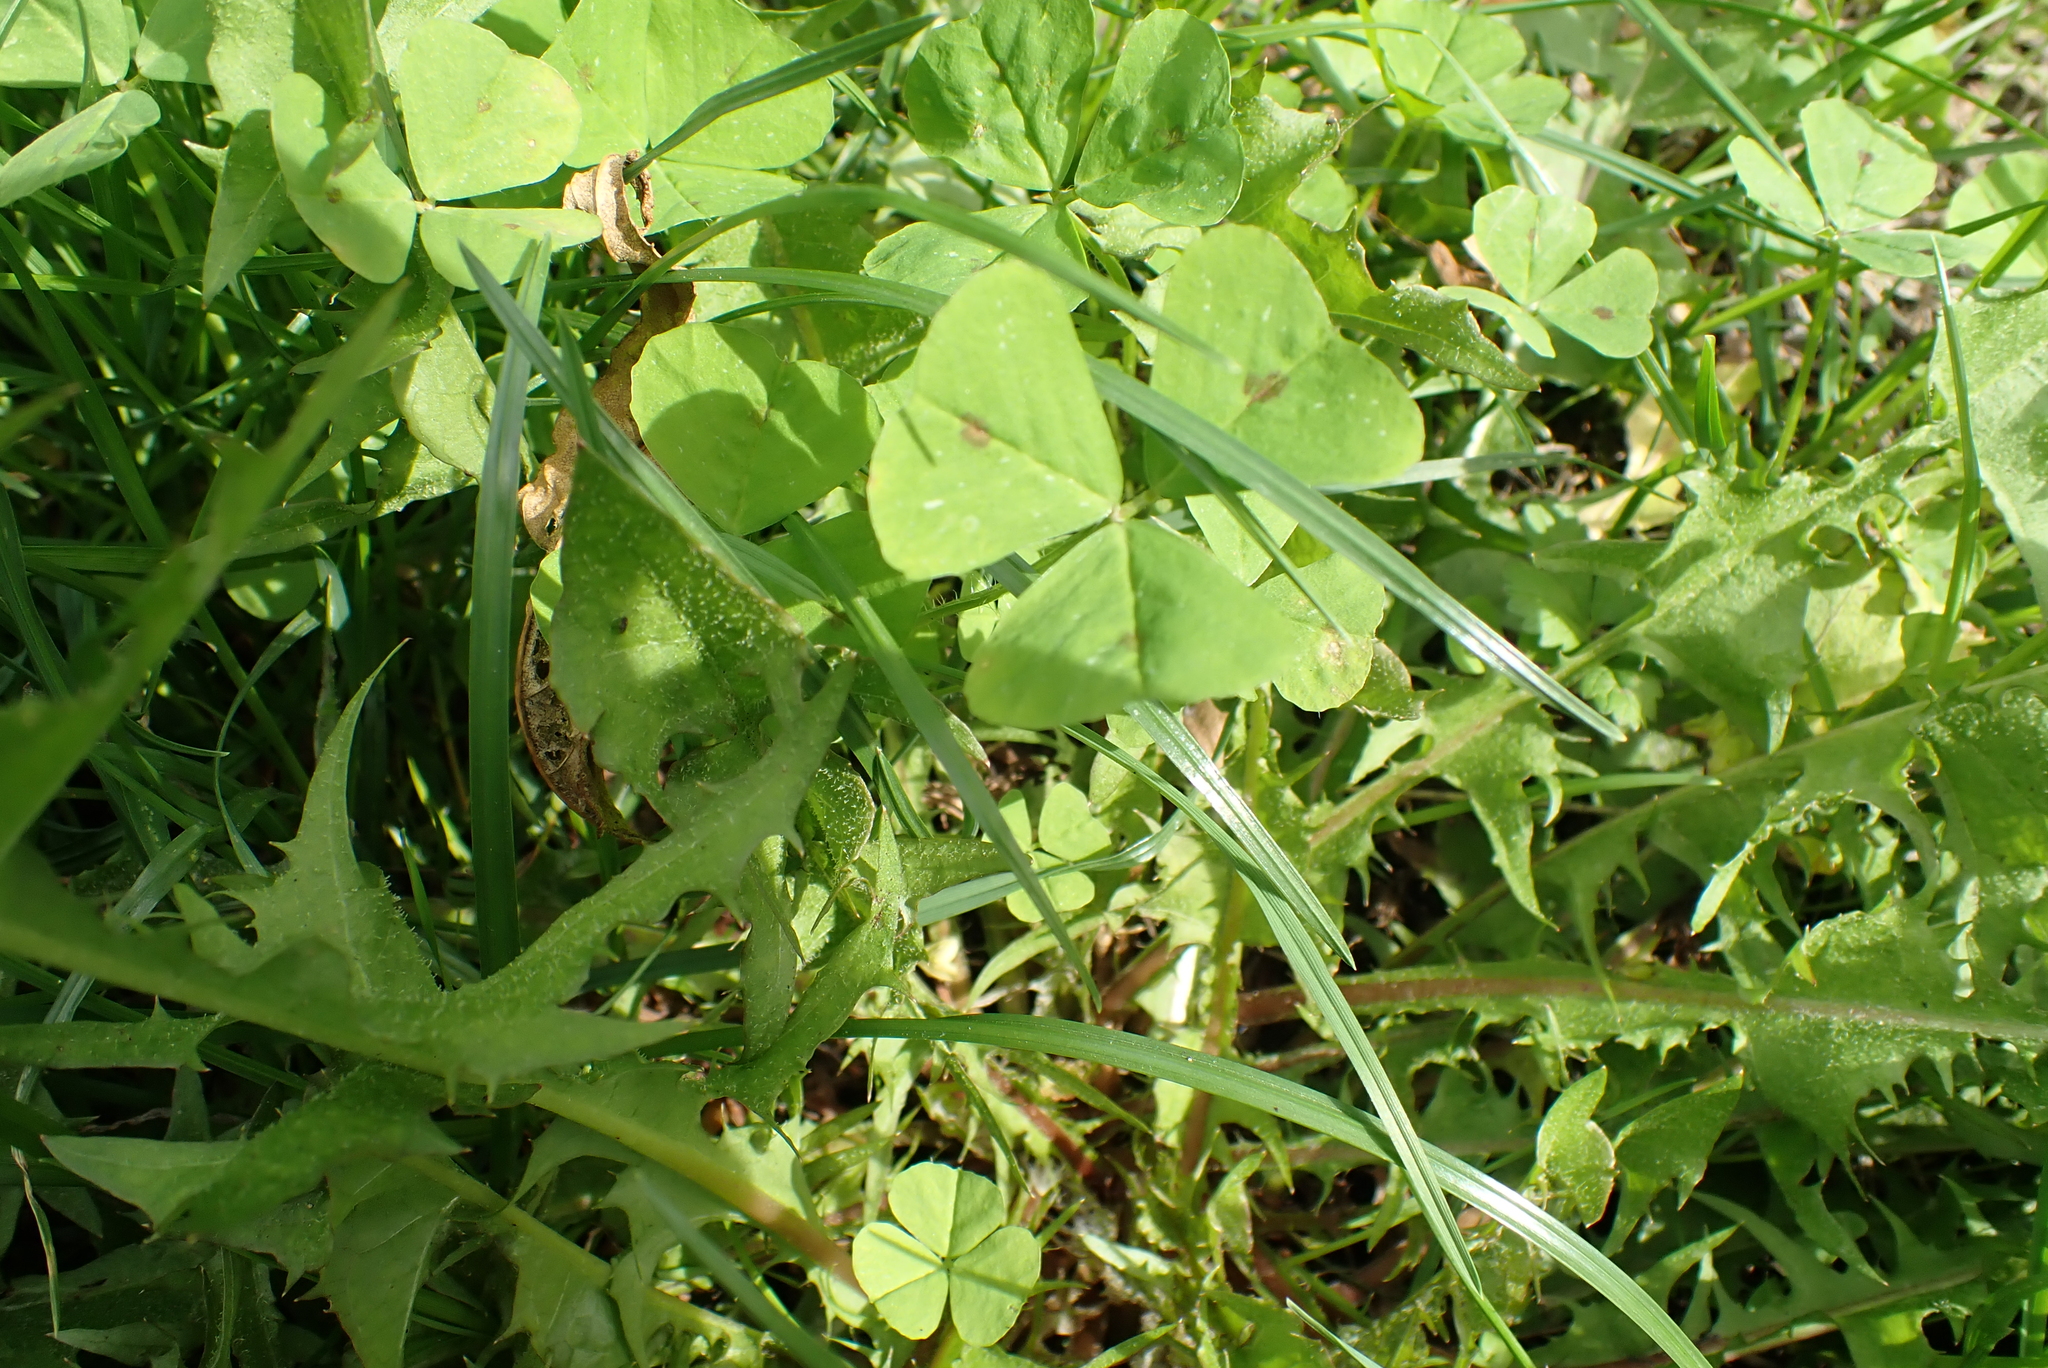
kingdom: Plantae
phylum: Tracheophyta
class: Magnoliopsida
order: Fabales
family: Fabaceae
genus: Medicago
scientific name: Medicago arabica
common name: Spotted medick
